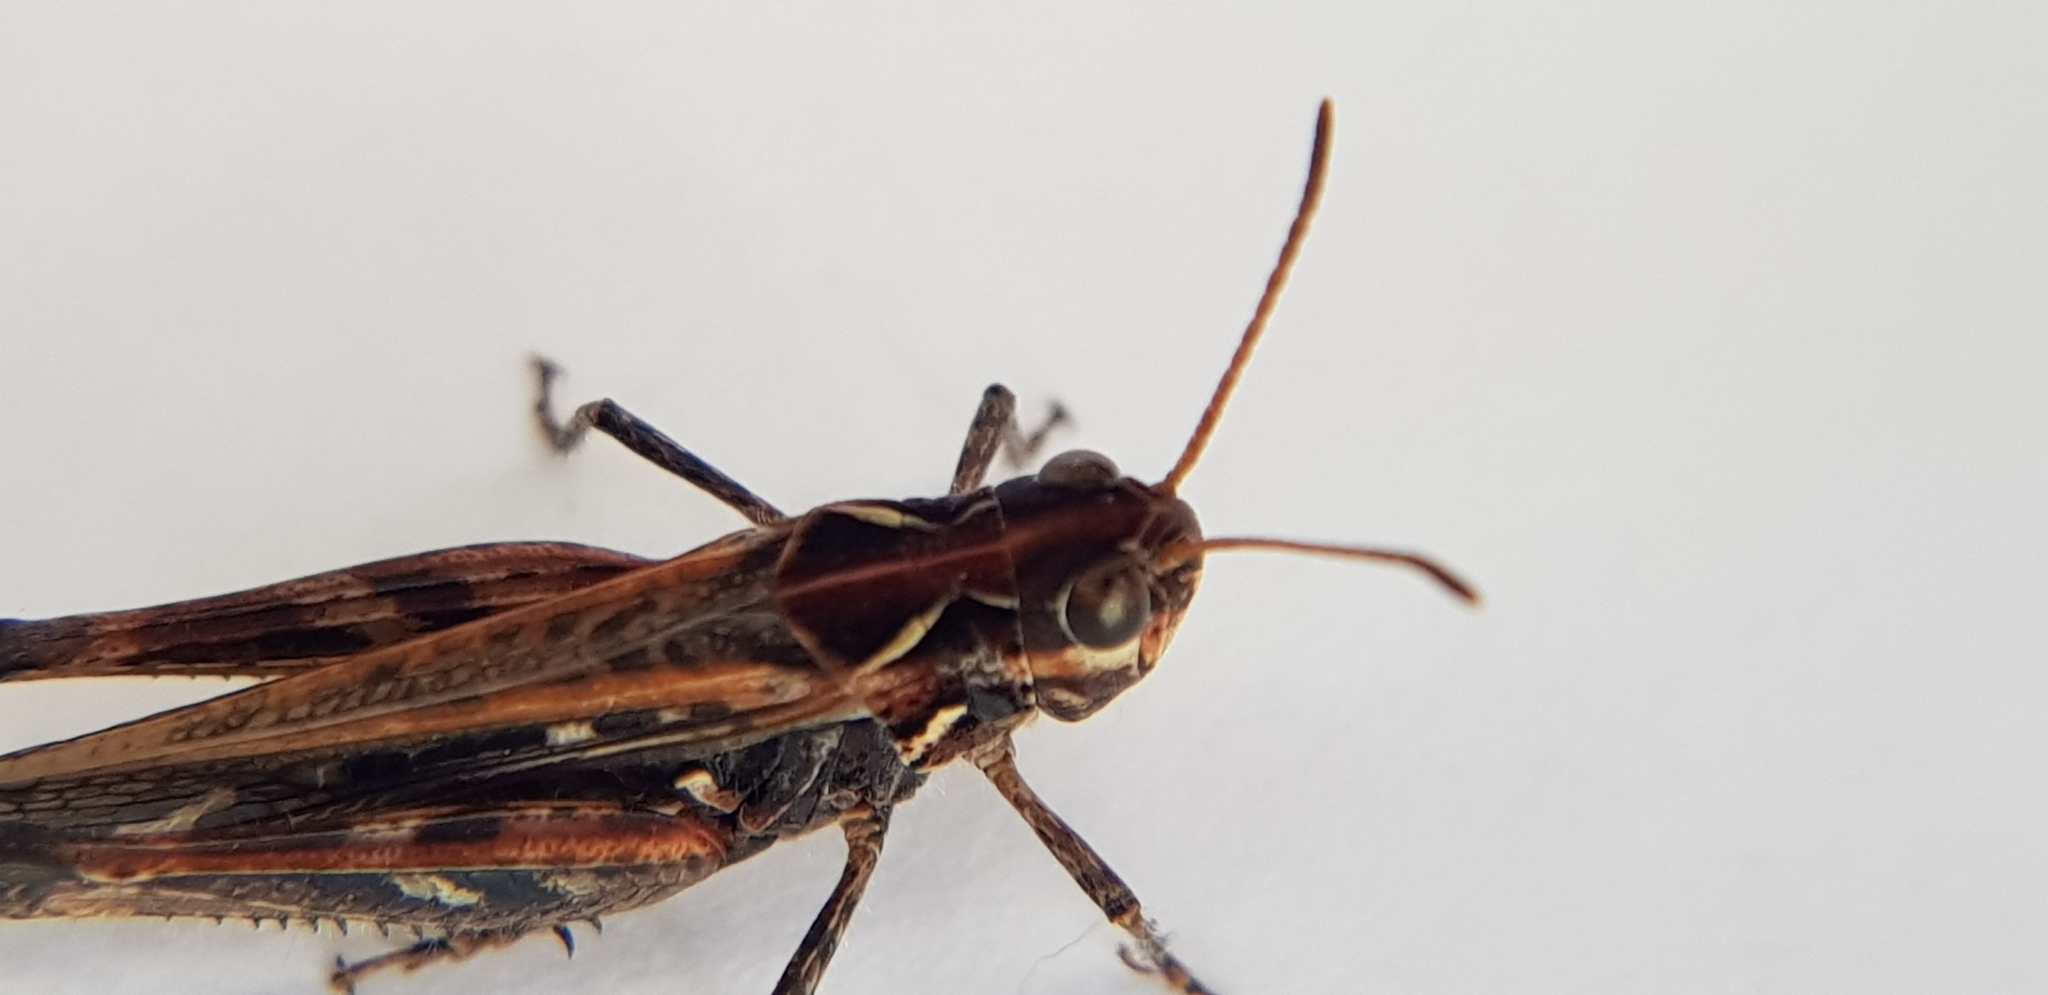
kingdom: Animalia
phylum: Arthropoda
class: Insecta
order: Orthoptera
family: Acrididae
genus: Myrmeleotettix
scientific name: Myrmeleotettix maculatus
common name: Mottled grasshopper
